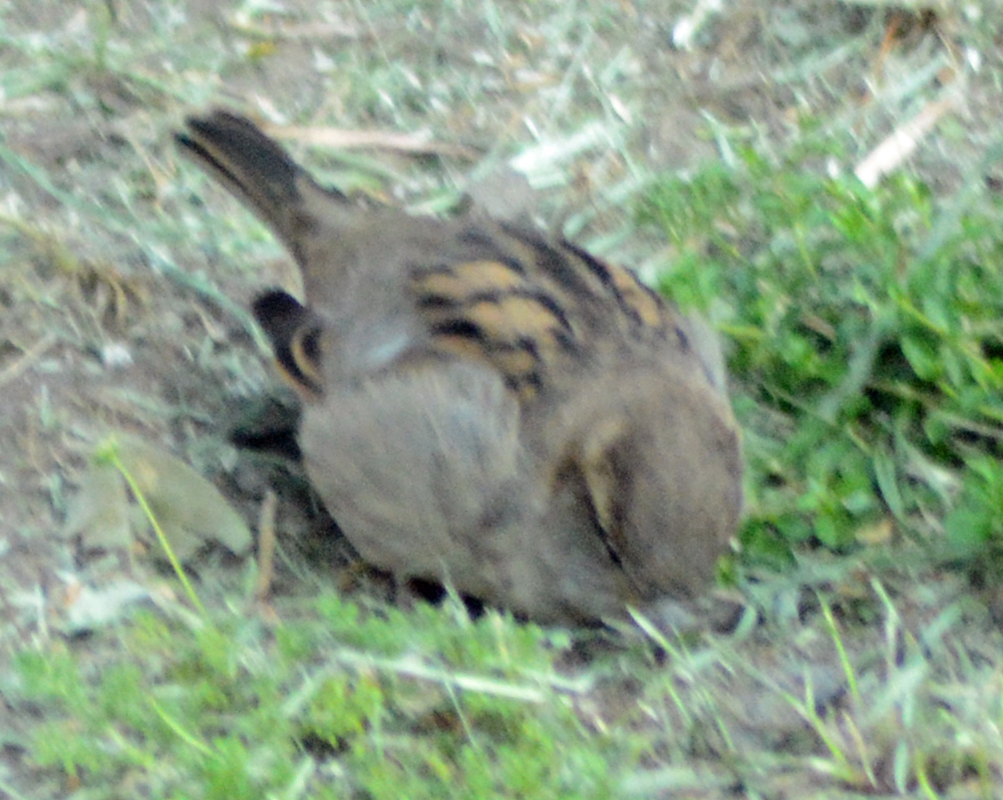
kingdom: Animalia
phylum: Chordata
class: Aves
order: Passeriformes
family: Passeridae
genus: Passer
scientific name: Passer domesticus
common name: House sparrow
